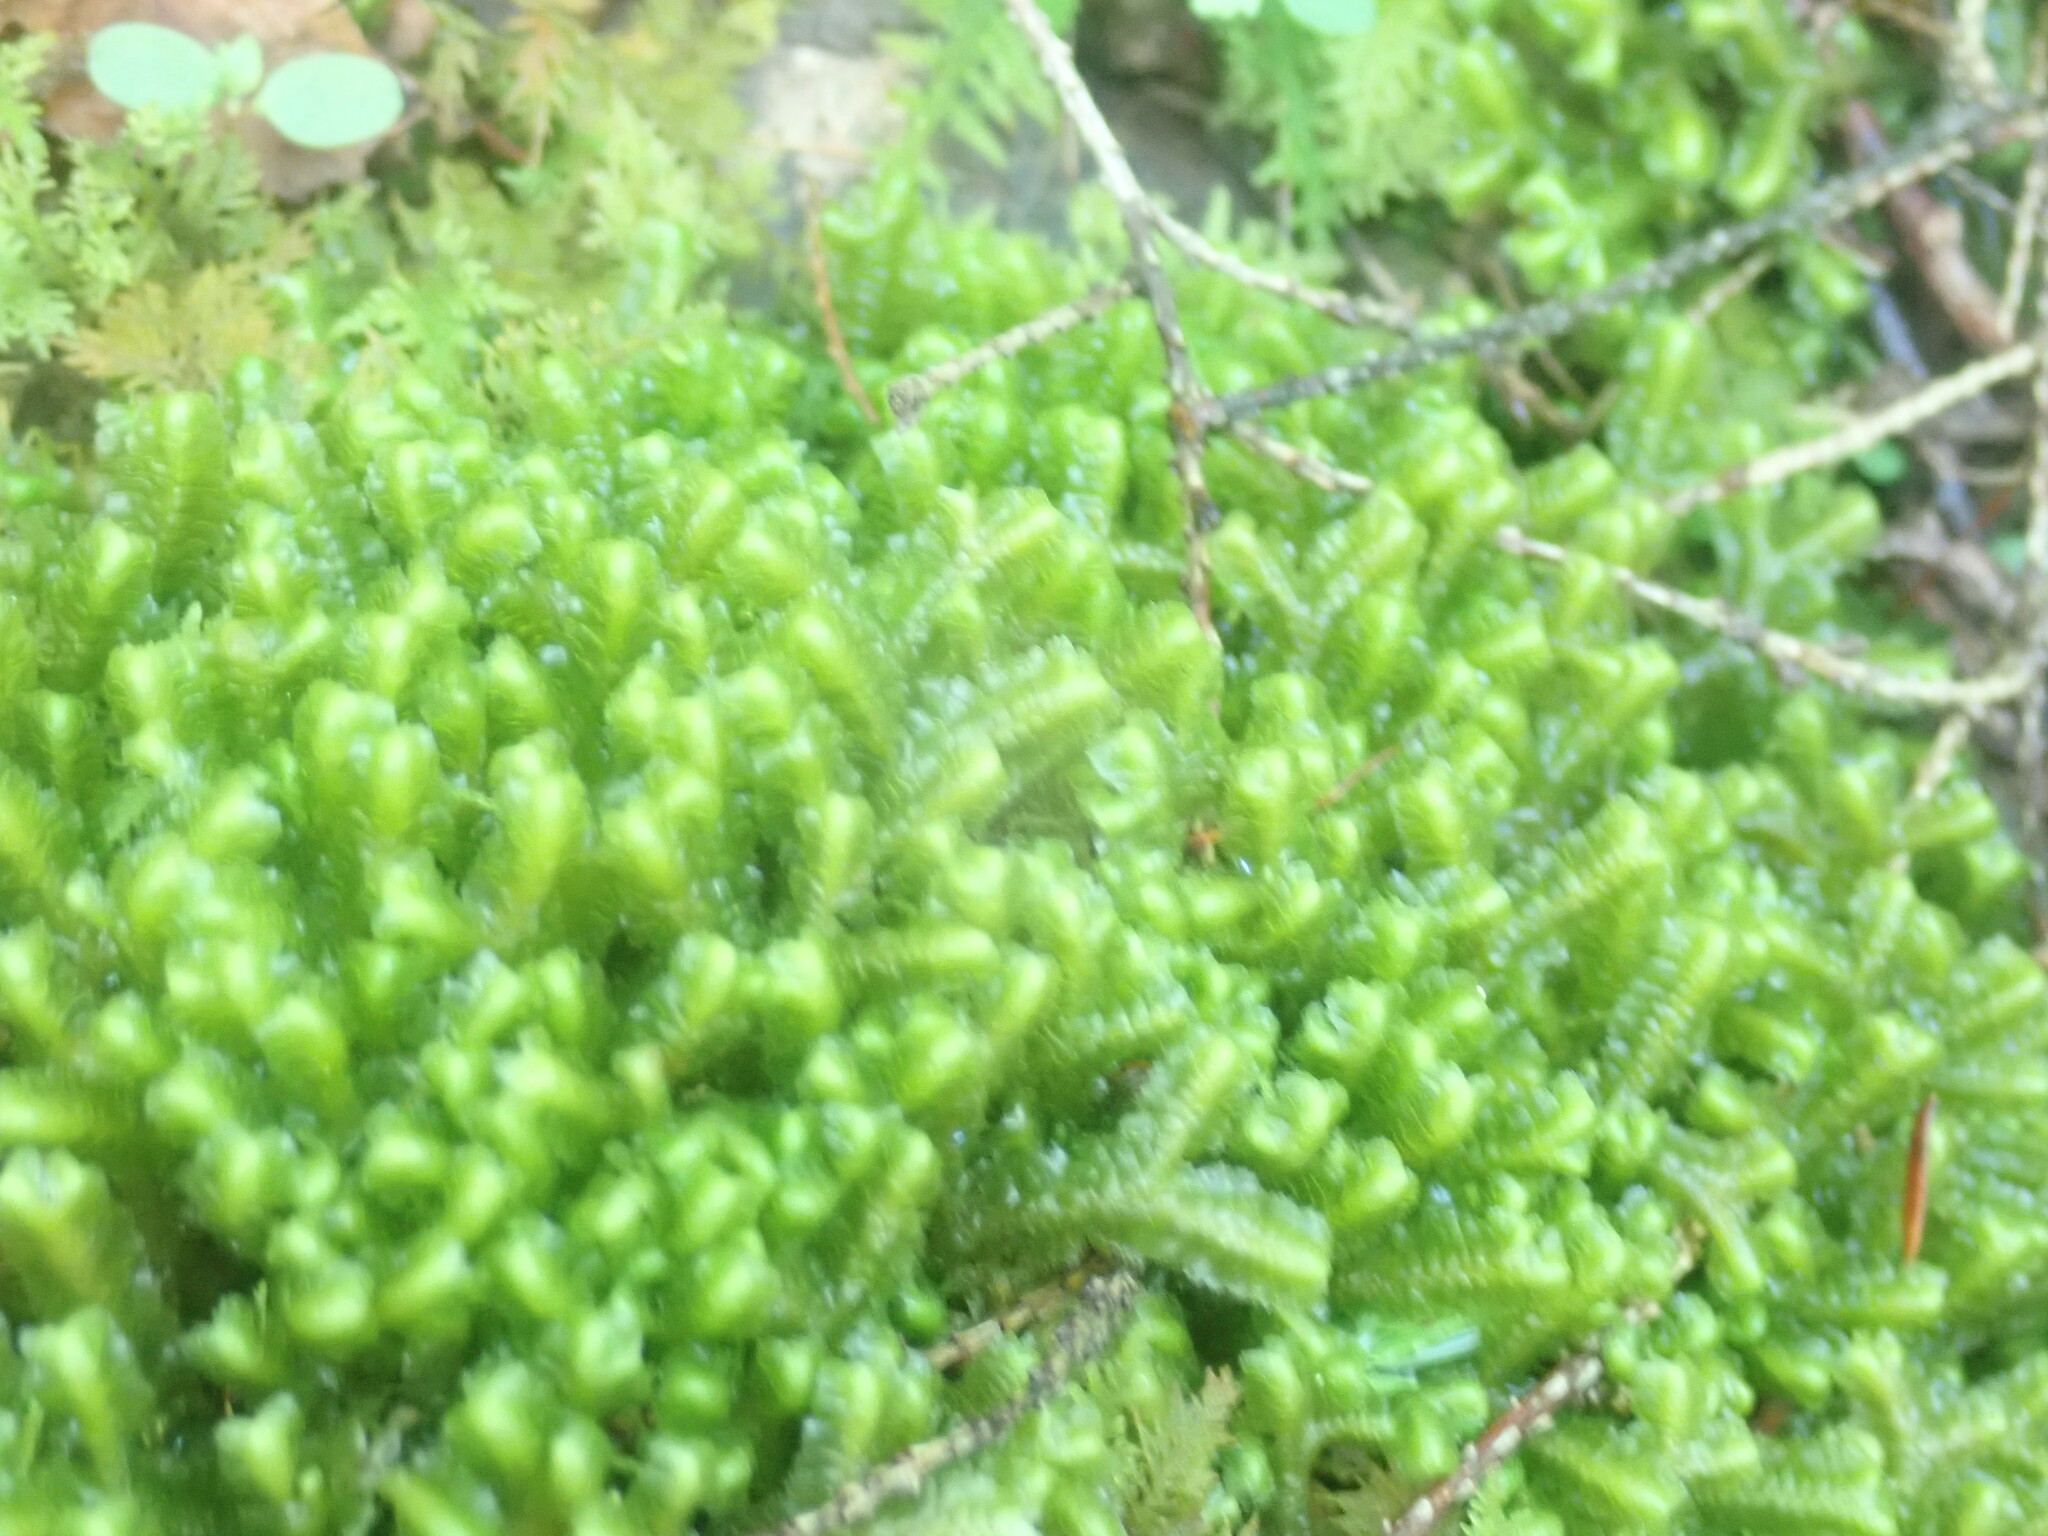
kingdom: Plantae
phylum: Marchantiophyta
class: Jungermanniopsida
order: Jungermanniales
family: Lepidoziaceae
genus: Bazzania
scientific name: Bazzania trilobata
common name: Three-lobed whipwort
